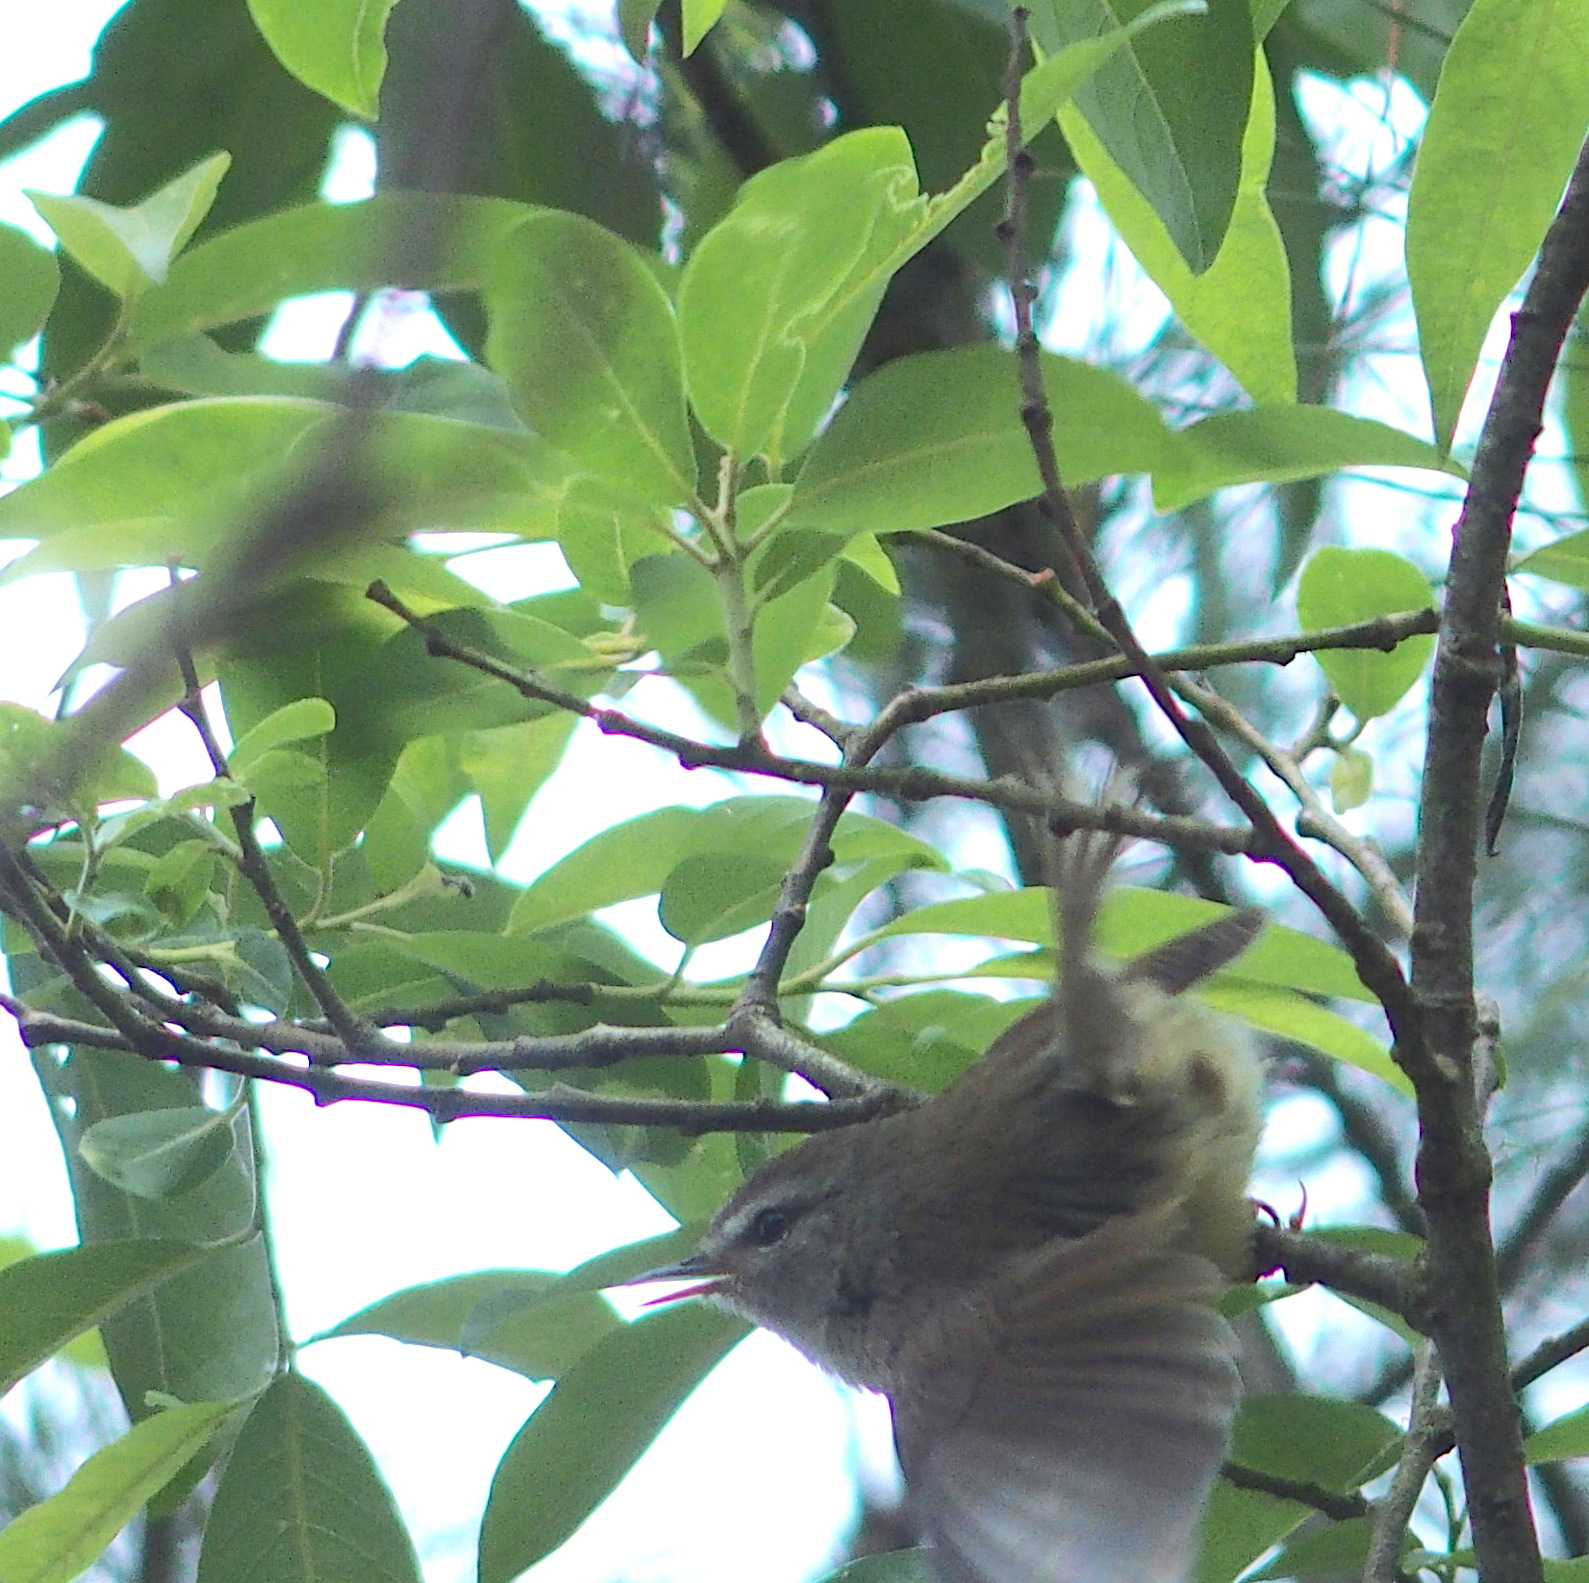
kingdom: Animalia
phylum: Chordata
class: Aves
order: Passeriformes
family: Cettiidae
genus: Horornis
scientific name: Horornis acanthizoides
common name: Yellow-bellied bush warbler
